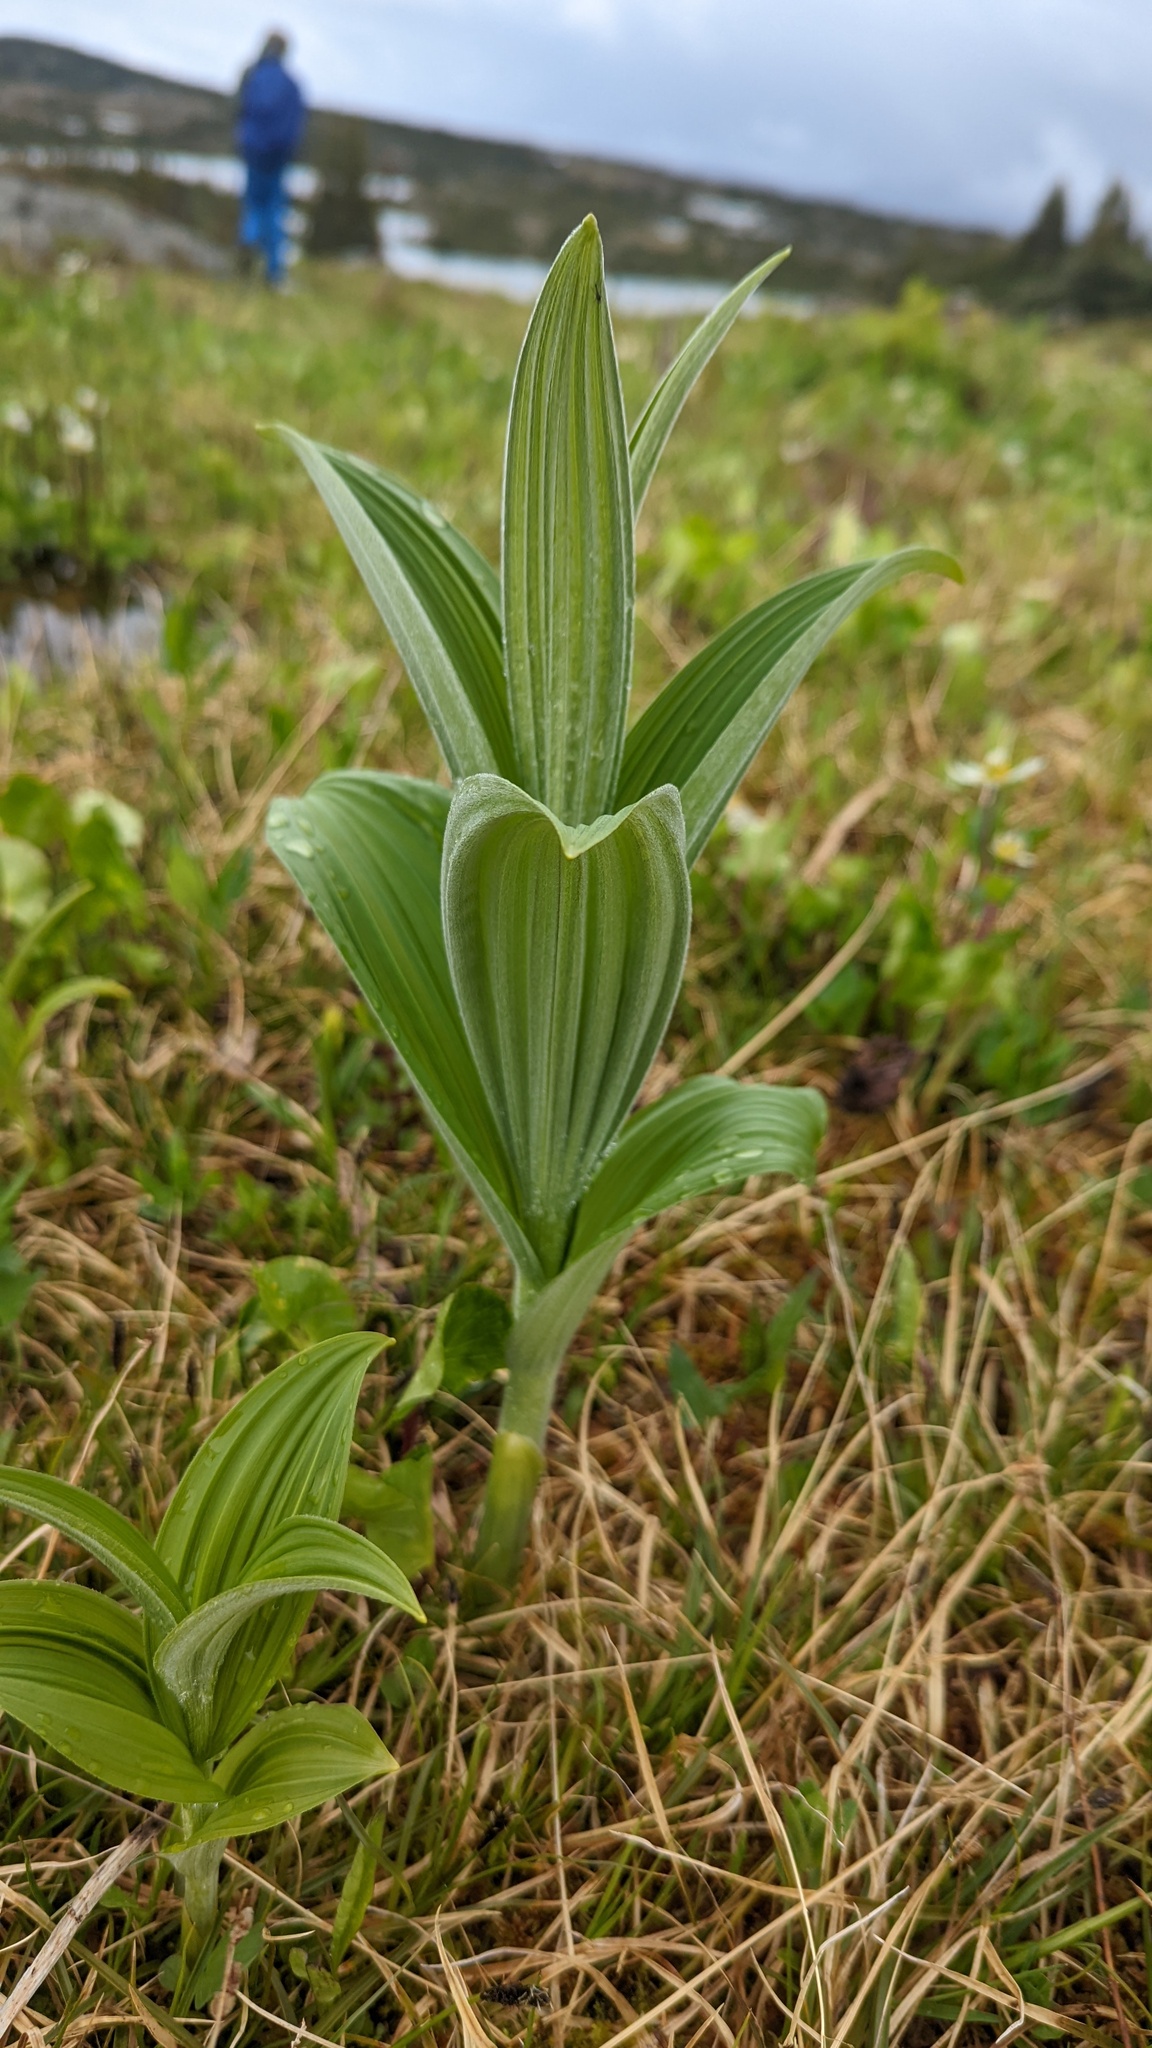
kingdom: Plantae
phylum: Tracheophyta
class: Liliopsida
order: Liliales
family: Melanthiaceae
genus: Veratrum
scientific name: Veratrum viride
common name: American false hellebore
